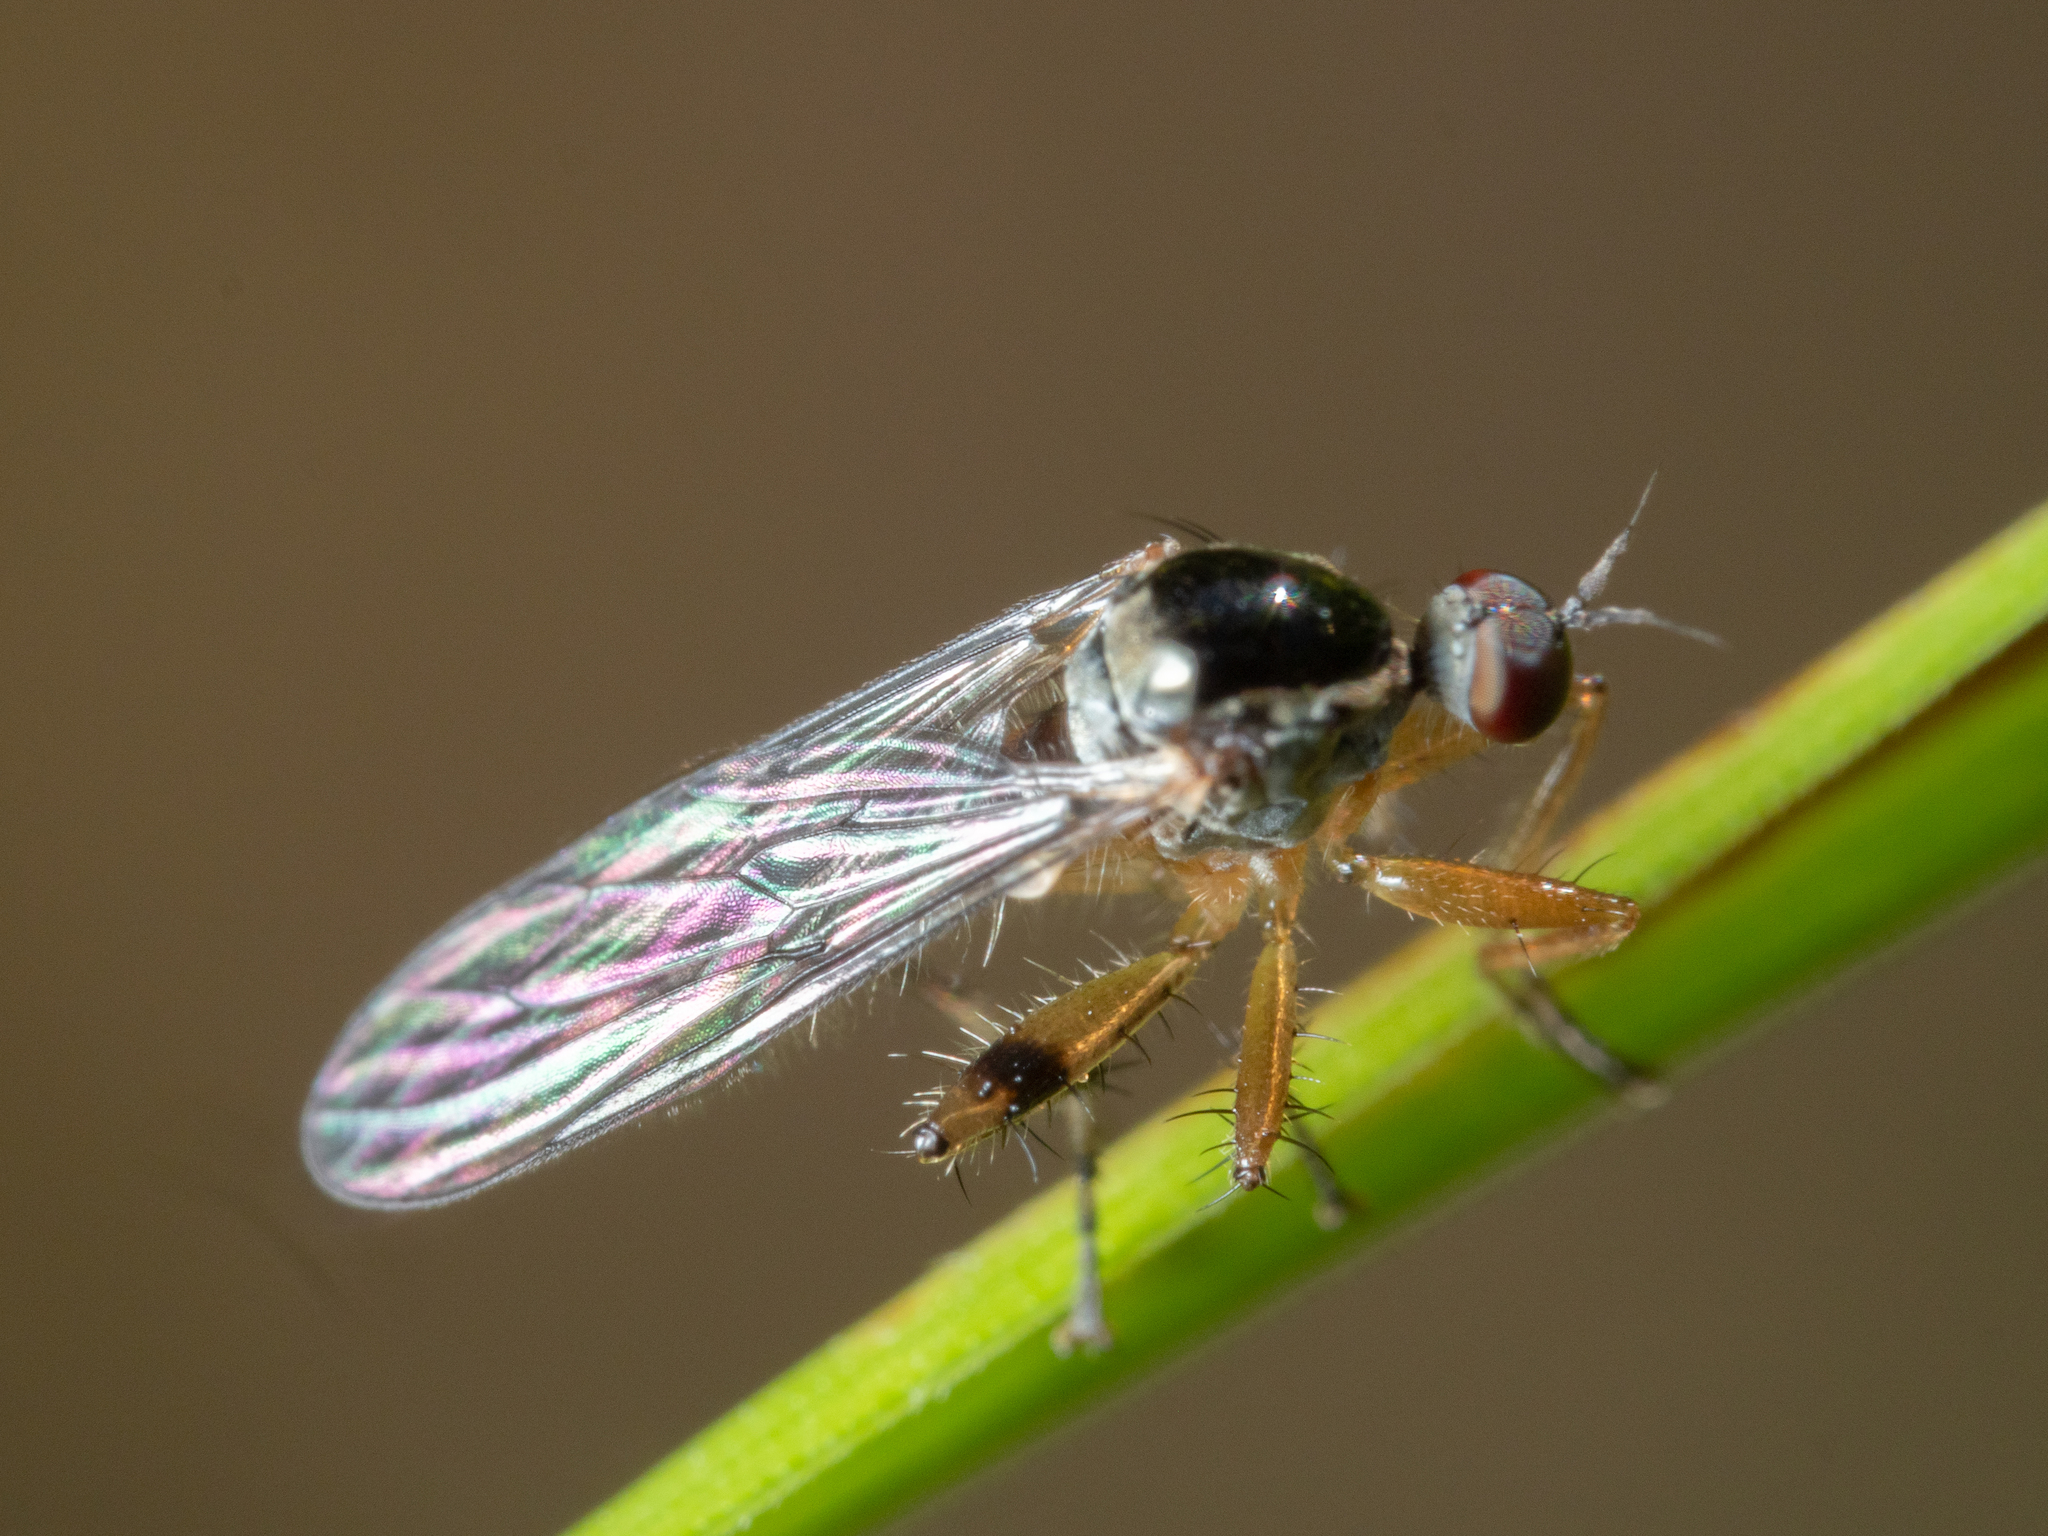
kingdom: Animalia
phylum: Arthropoda
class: Insecta
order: Diptera
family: Hybotidae
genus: Hoplopeza
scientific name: Hoplopeza pulcherrima
